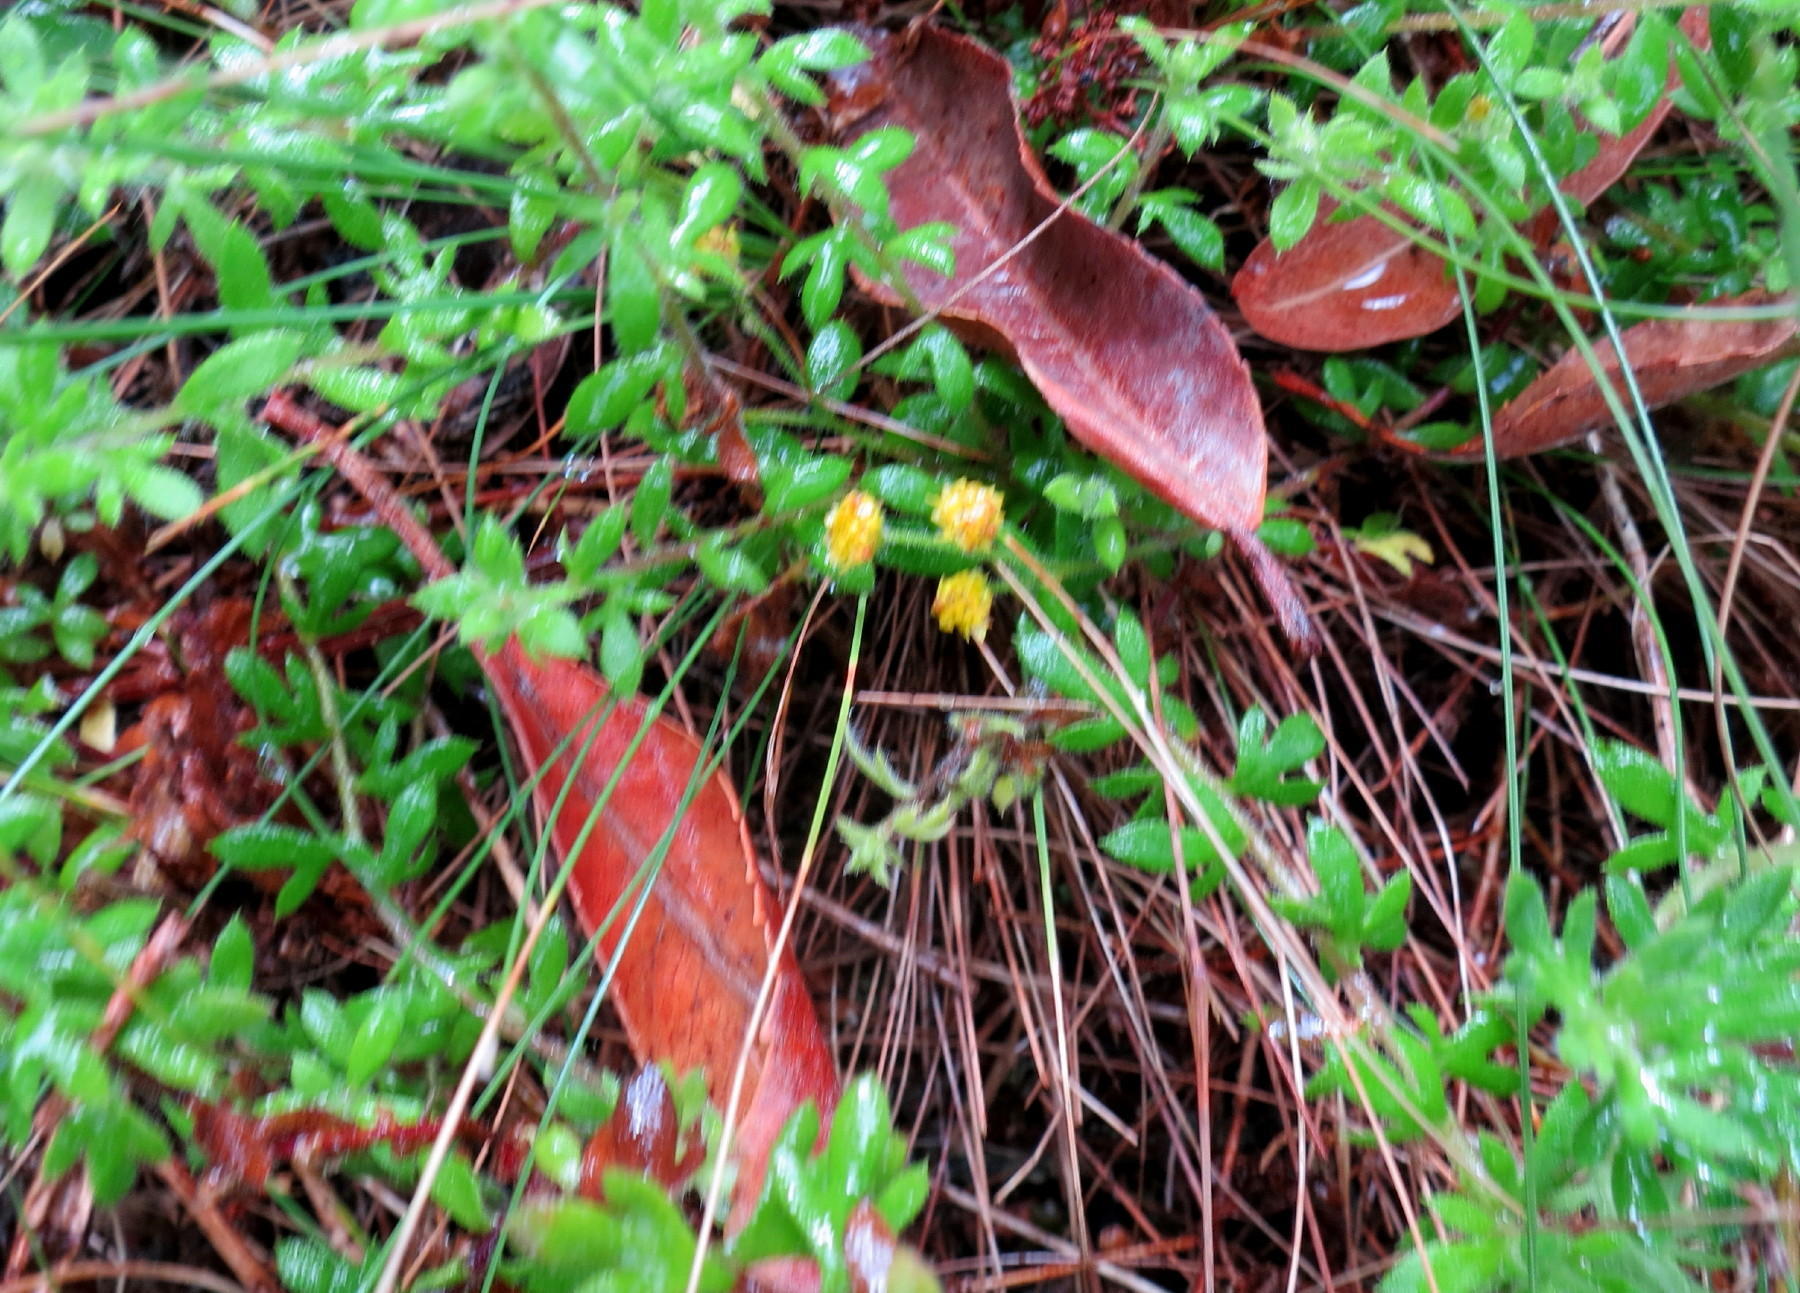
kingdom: Plantae
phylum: Tracheophyta
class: Magnoliopsida
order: Asterales
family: Asteraceae
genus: Hippia
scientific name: Hippia hutchinsonii
